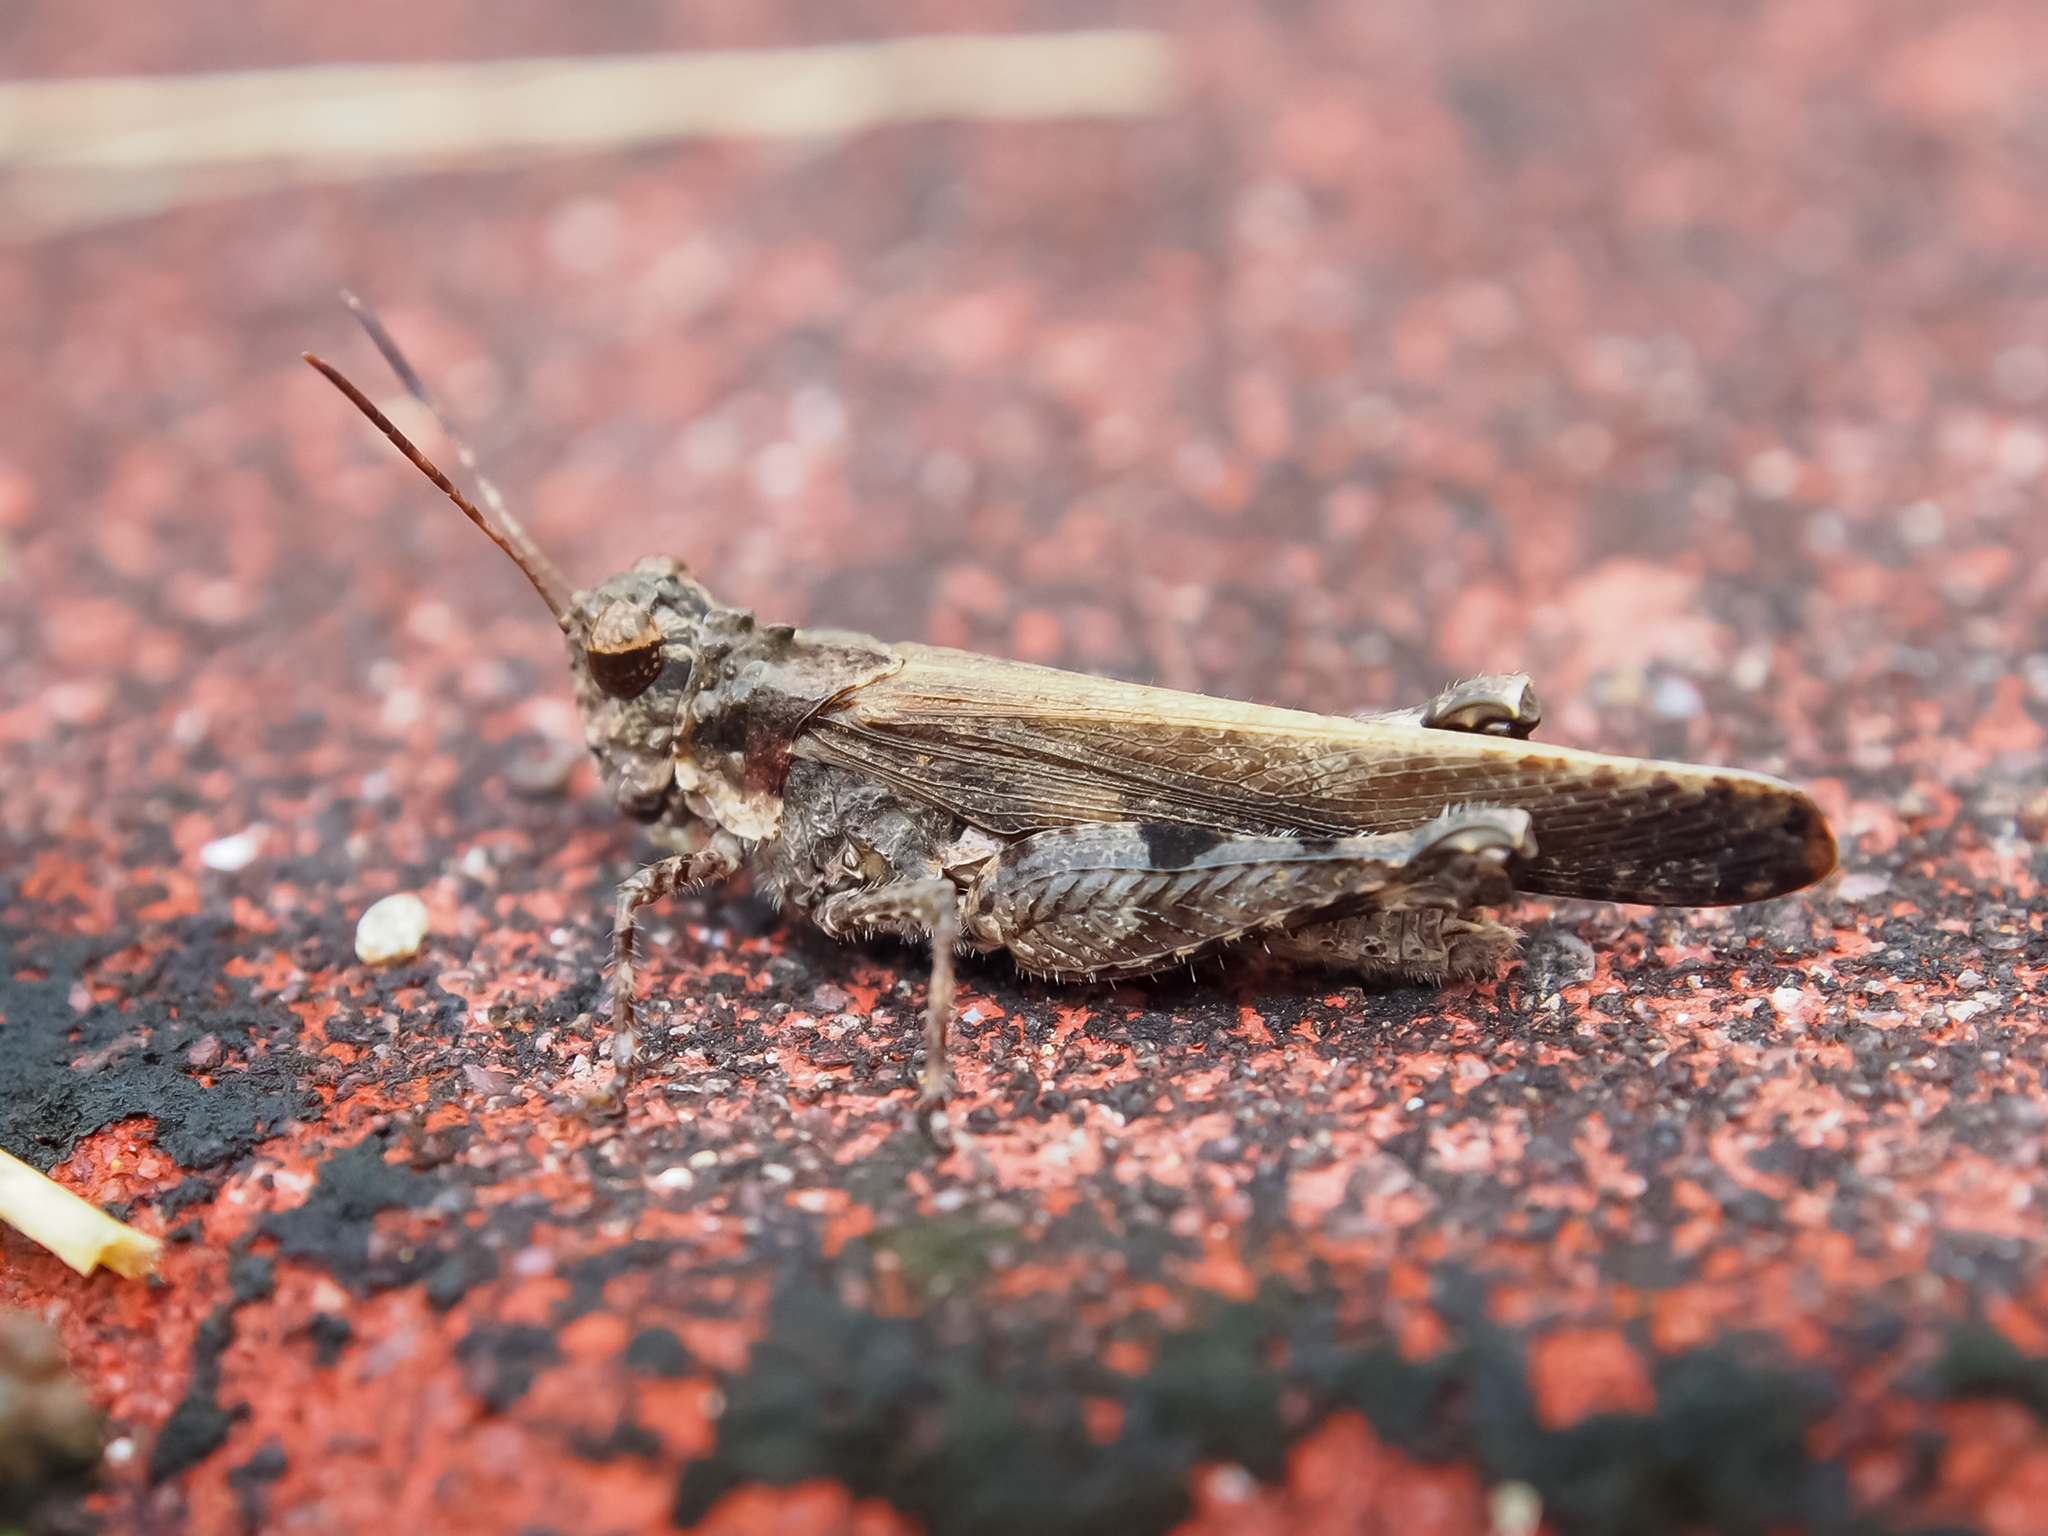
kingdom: Animalia
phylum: Arthropoda
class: Insecta
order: Orthoptera
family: Acrididae
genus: Trilophidia
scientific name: Trilophidia annulata
